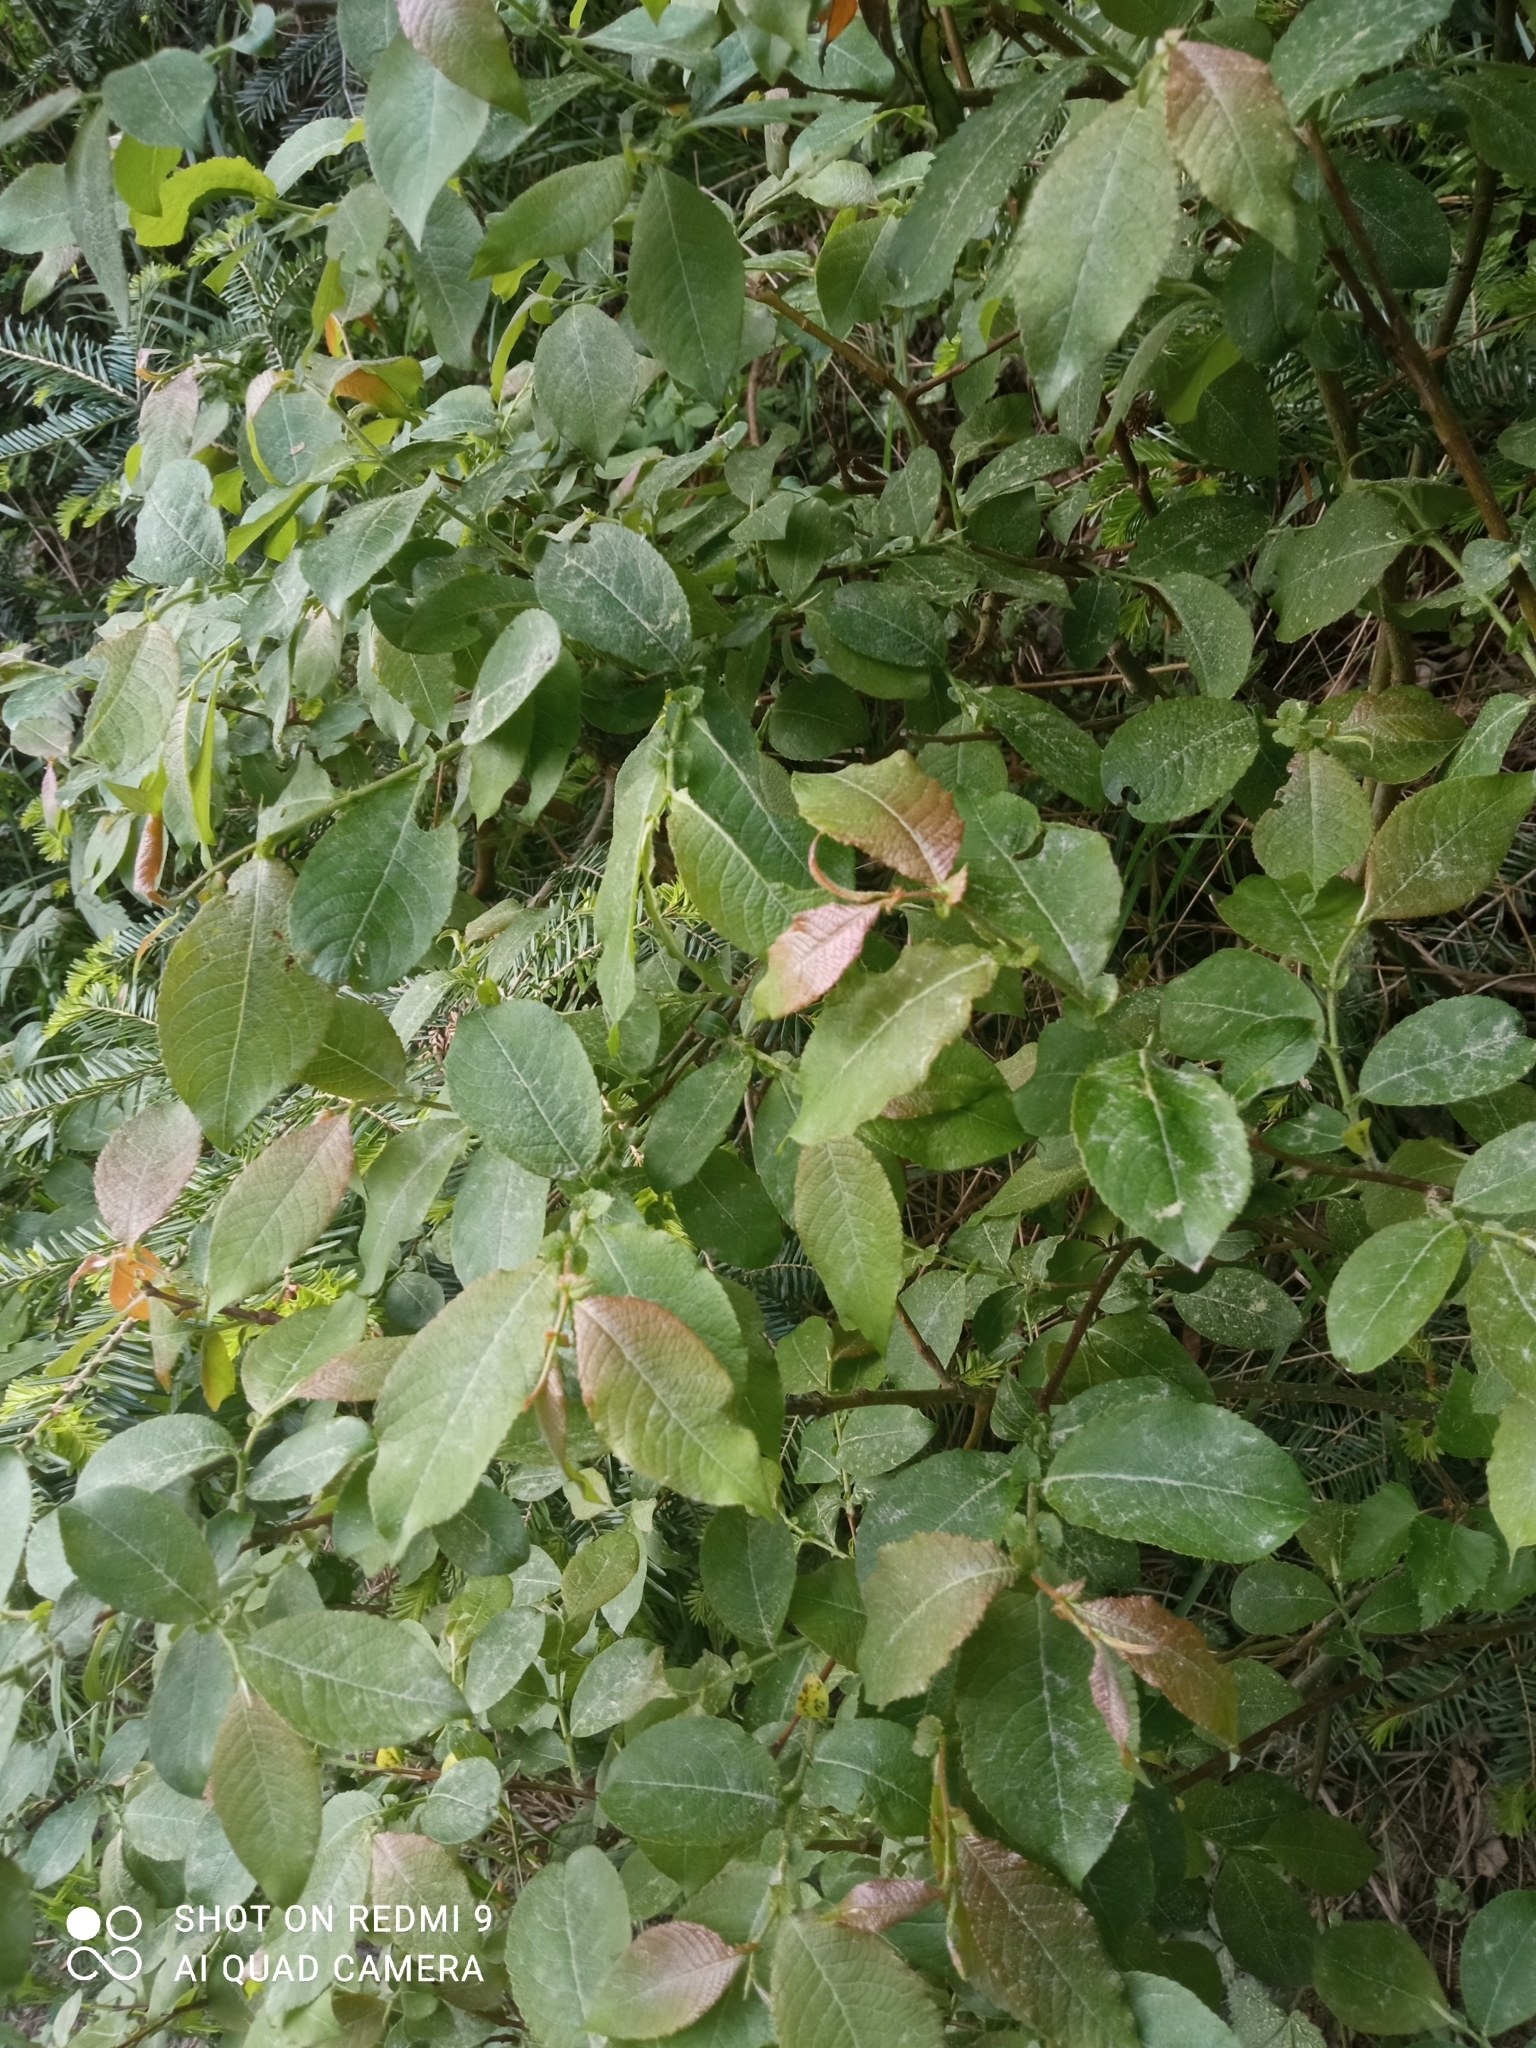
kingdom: Plantae
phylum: Tracheophyta
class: Magnoliopsida
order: Malpighiales
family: Salicaceae
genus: Salix
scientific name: Salix silesiaca
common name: Silesian willow
